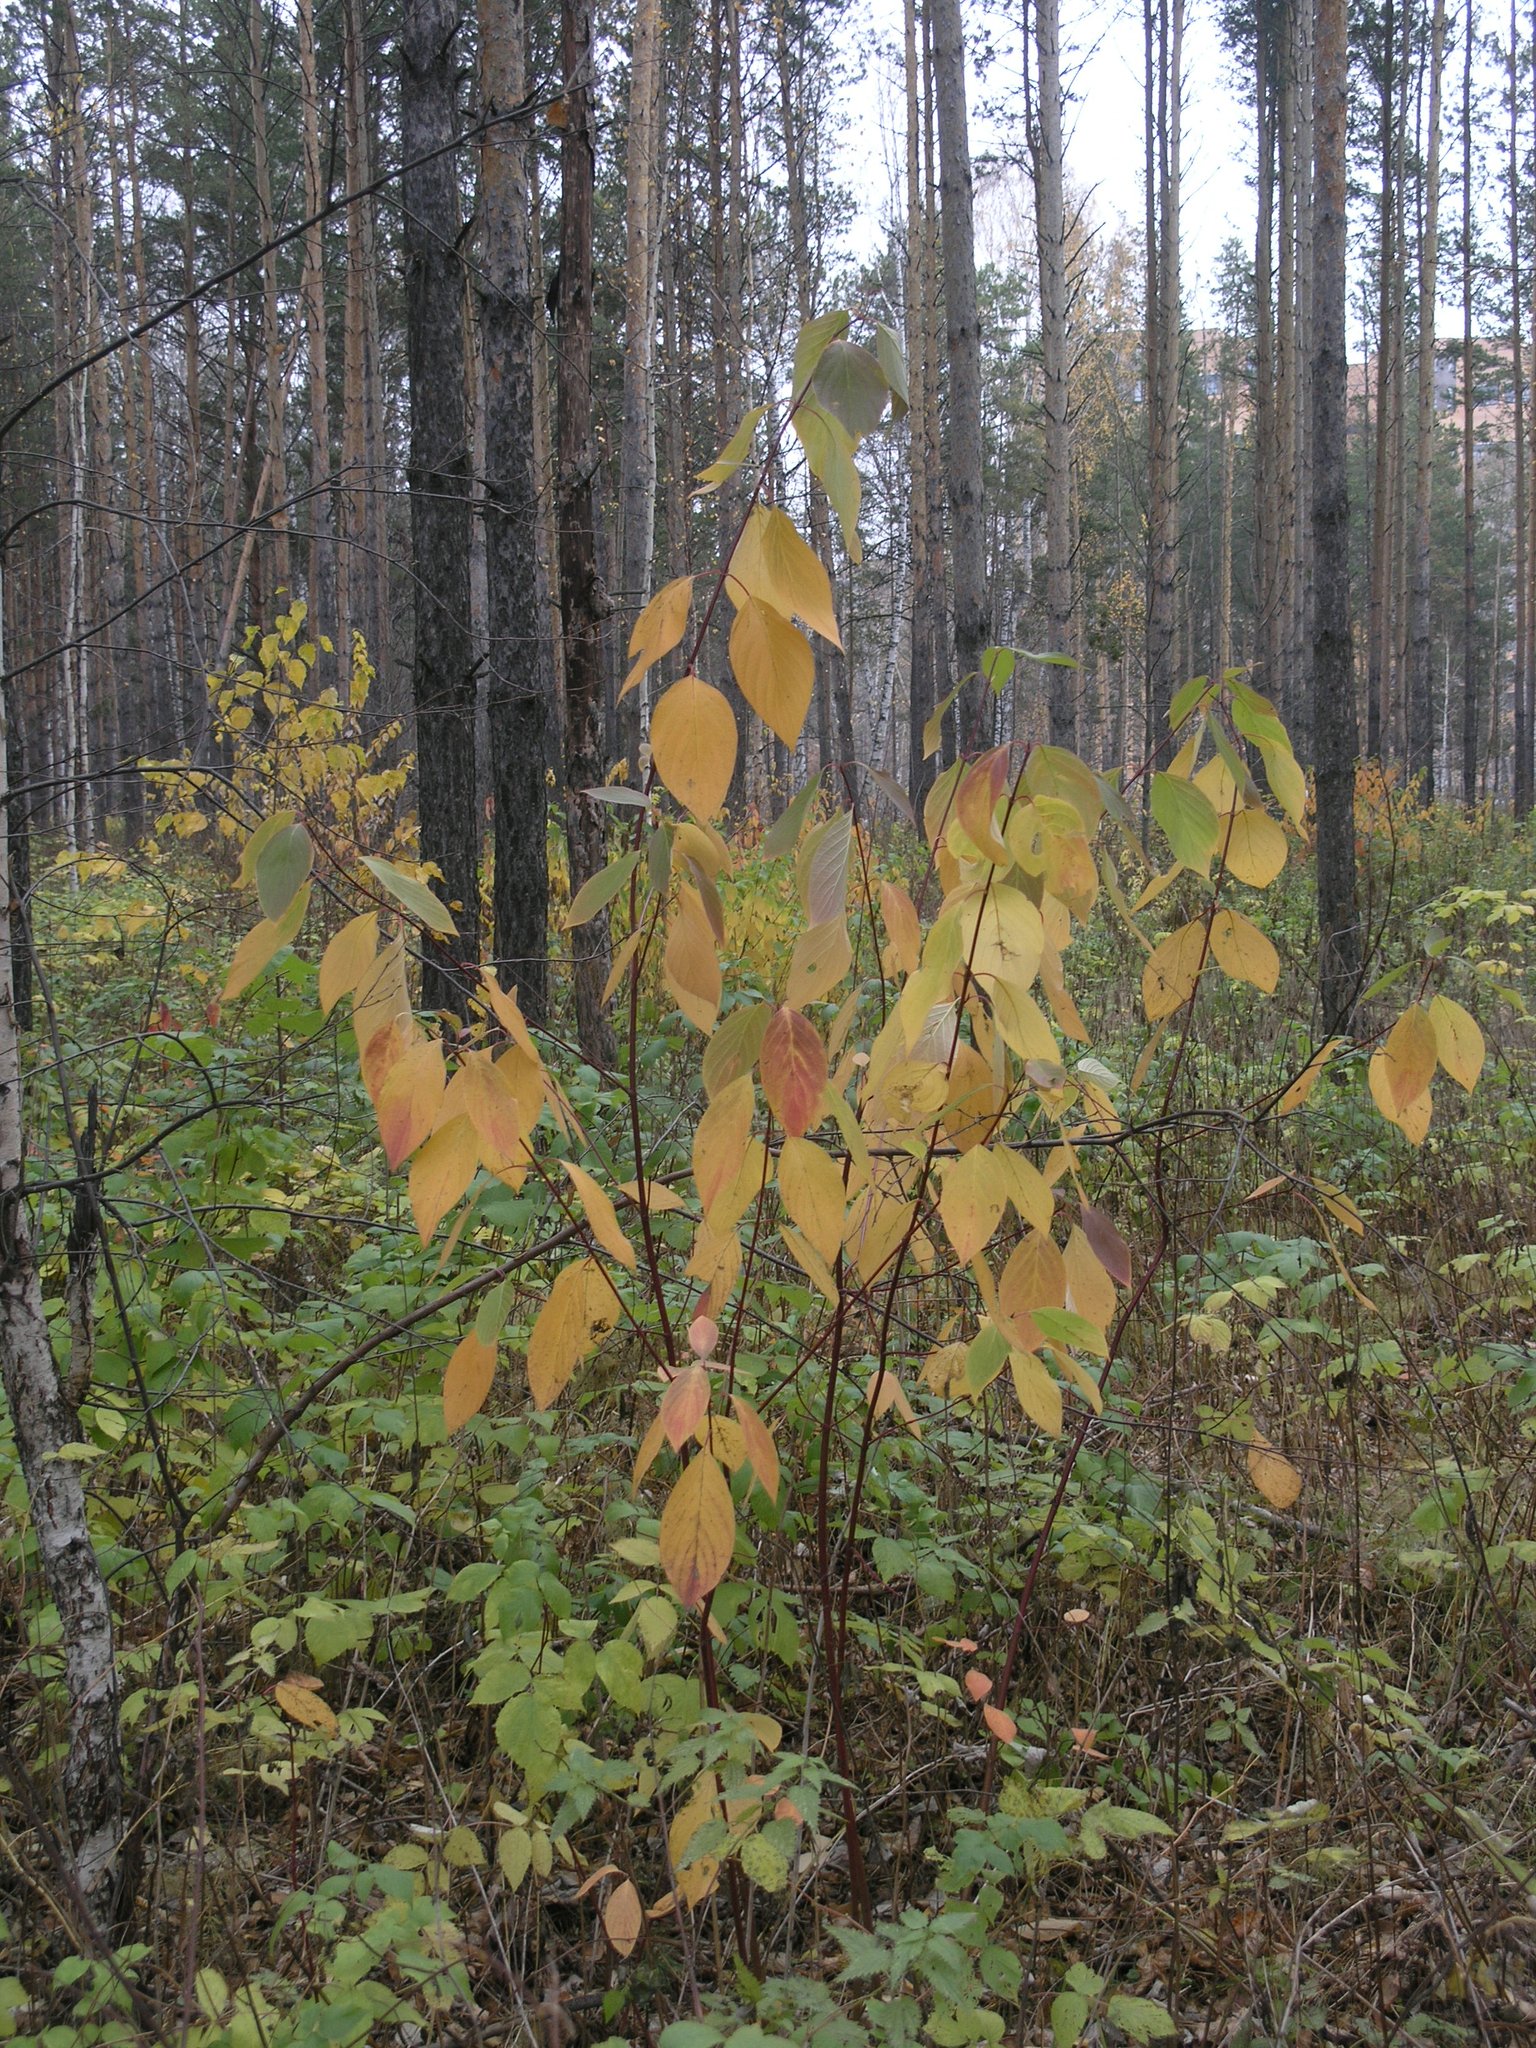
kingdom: Plantae
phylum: Tracheophyta
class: Magnoliopsida
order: Cornales
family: Cornaceae
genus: Cornus
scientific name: Cornus alba
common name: White dogwood
